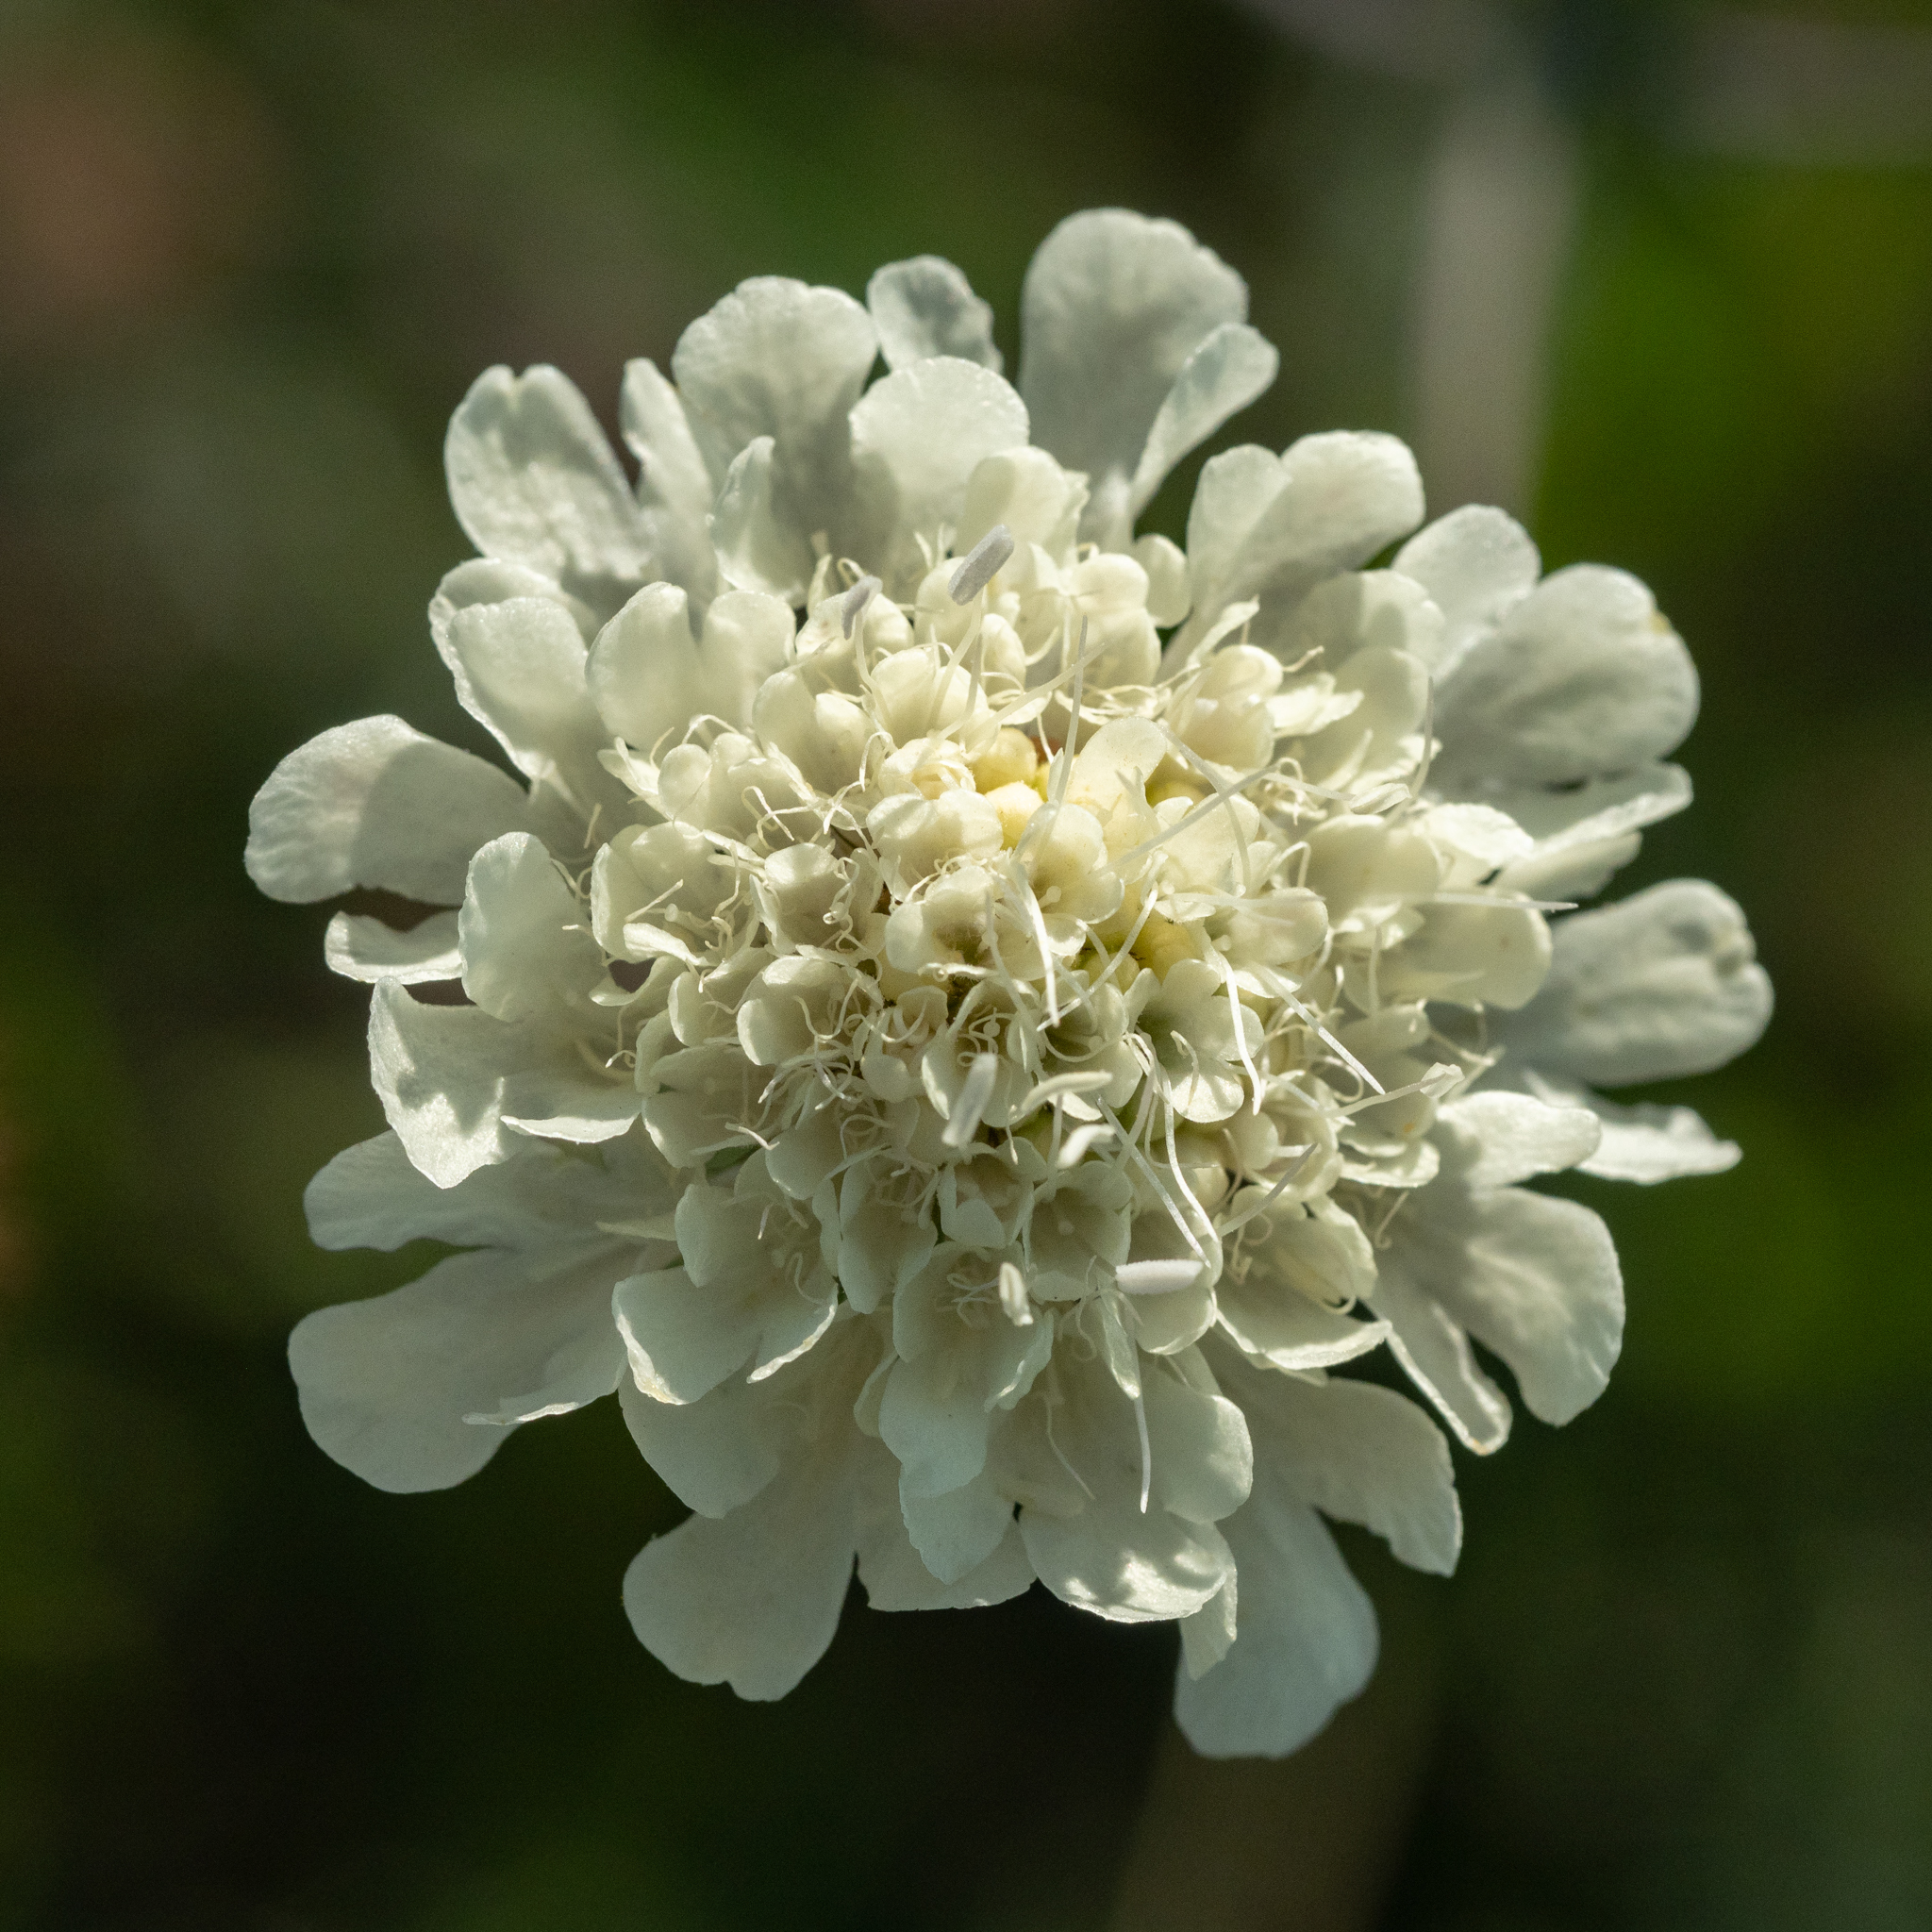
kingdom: Plantae
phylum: Tracheophyta
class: Magnoliopsida
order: Dipsacales
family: Caprifoliaceae
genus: Scabiosa
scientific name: Scabiosa ochroleuca
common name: Cream pincushions
